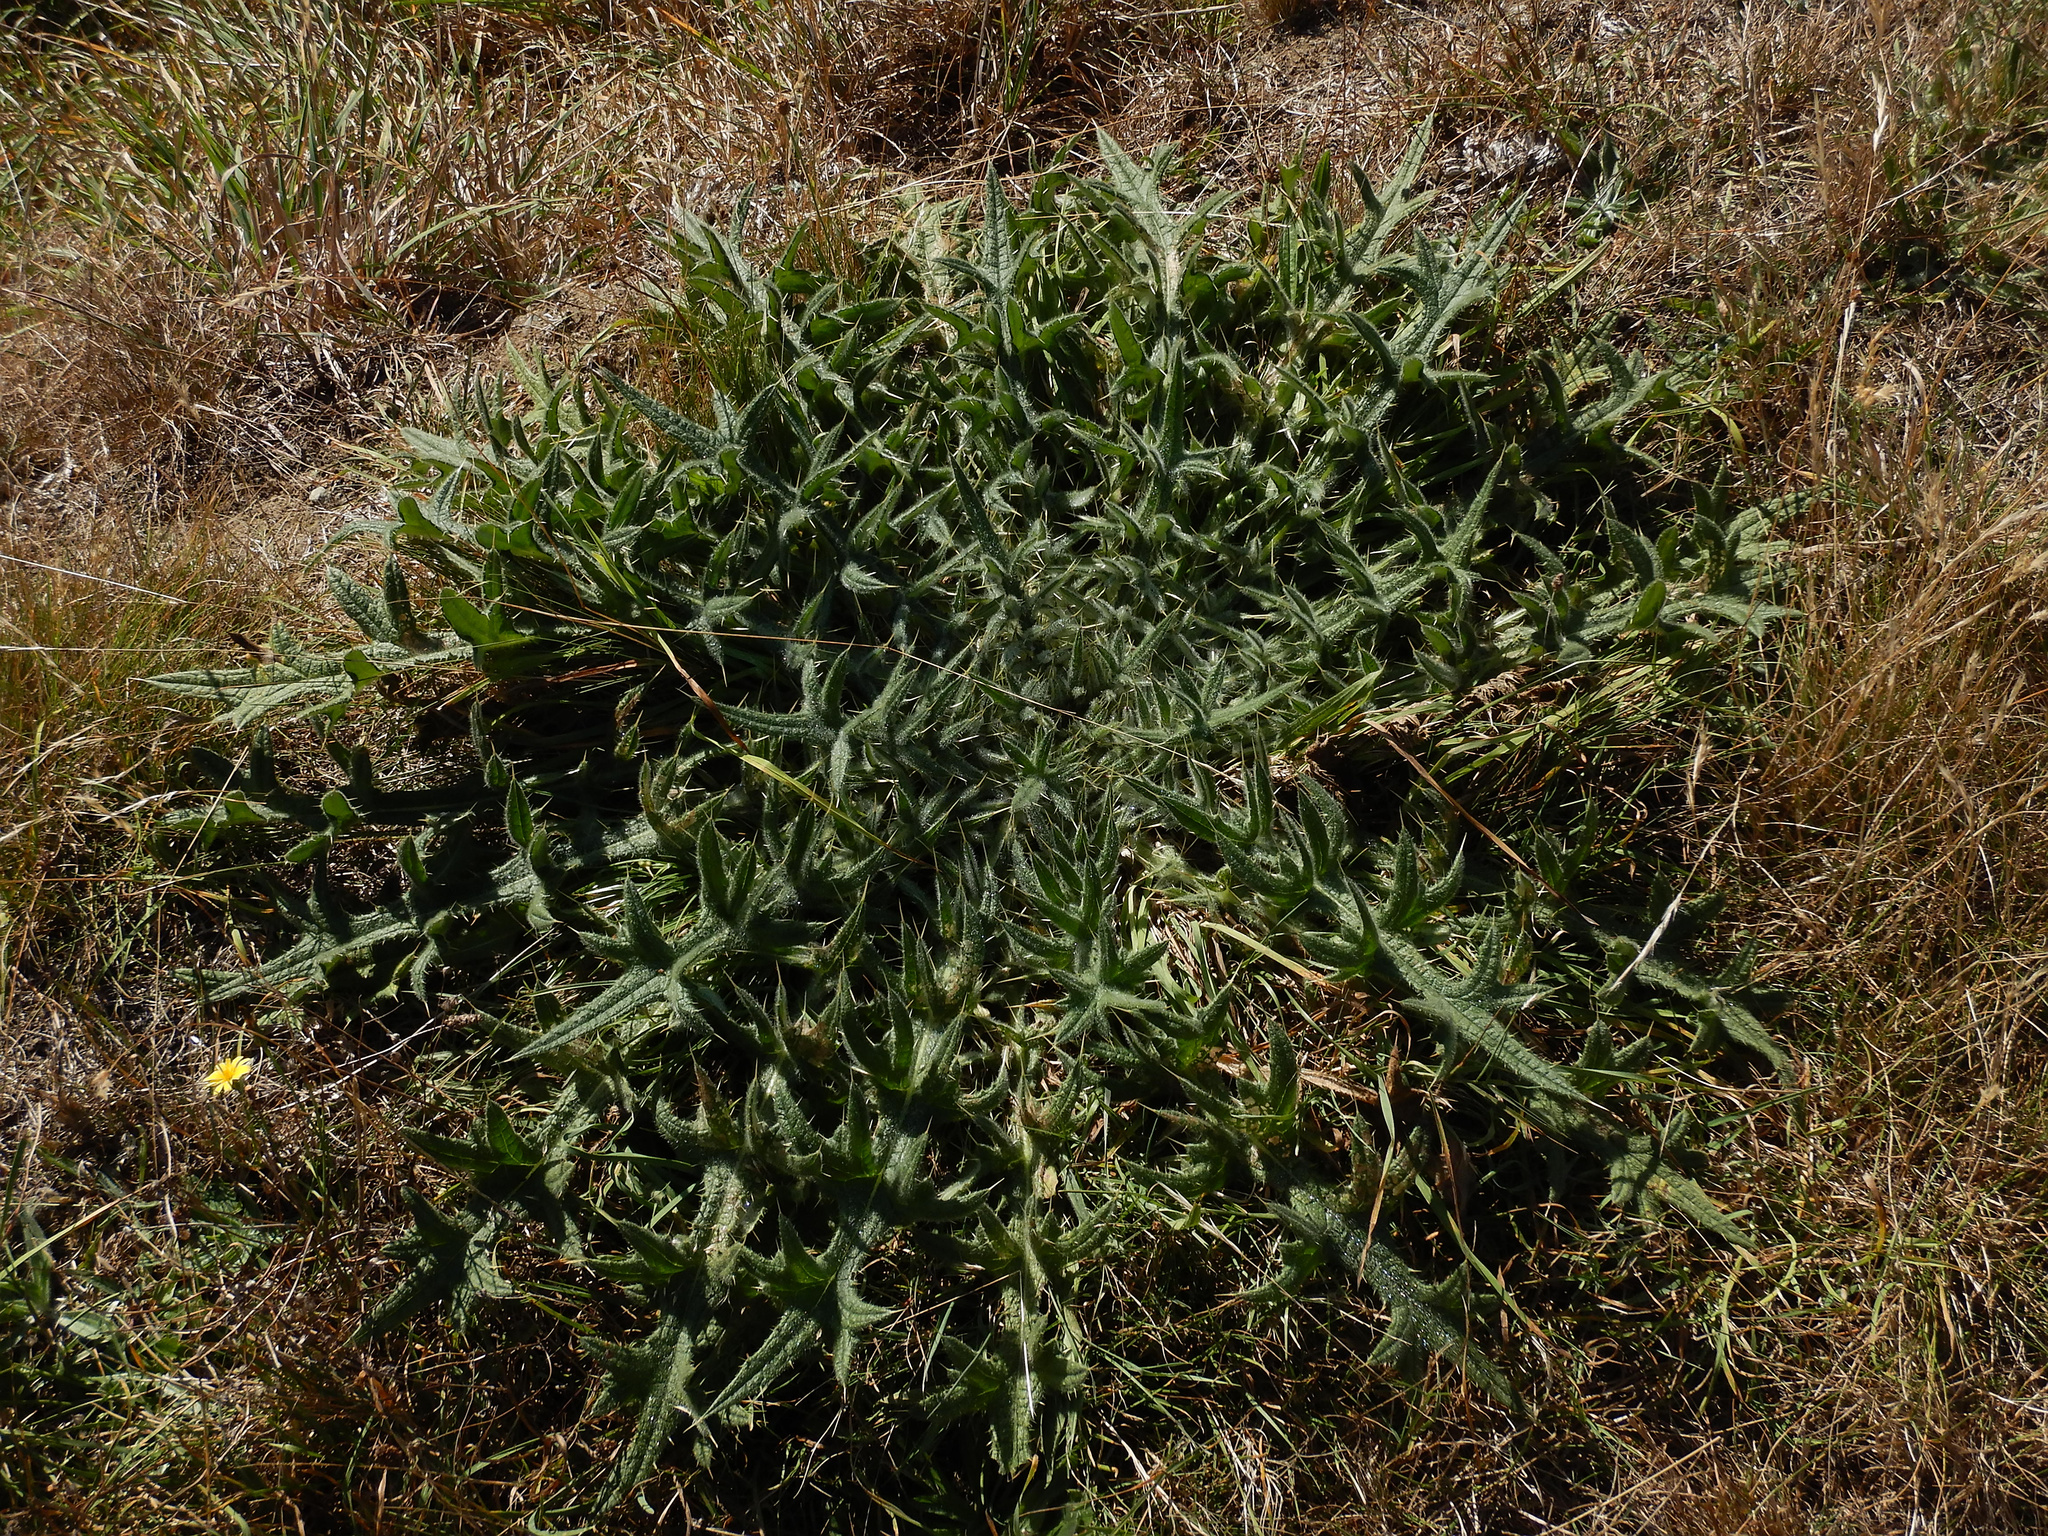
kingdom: Plantae
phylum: Tracheophyta
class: Magnoliopsida
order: Asterales
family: Asteraceae
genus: Cirsium
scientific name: Cirsium vulgare
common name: Bull thistle
